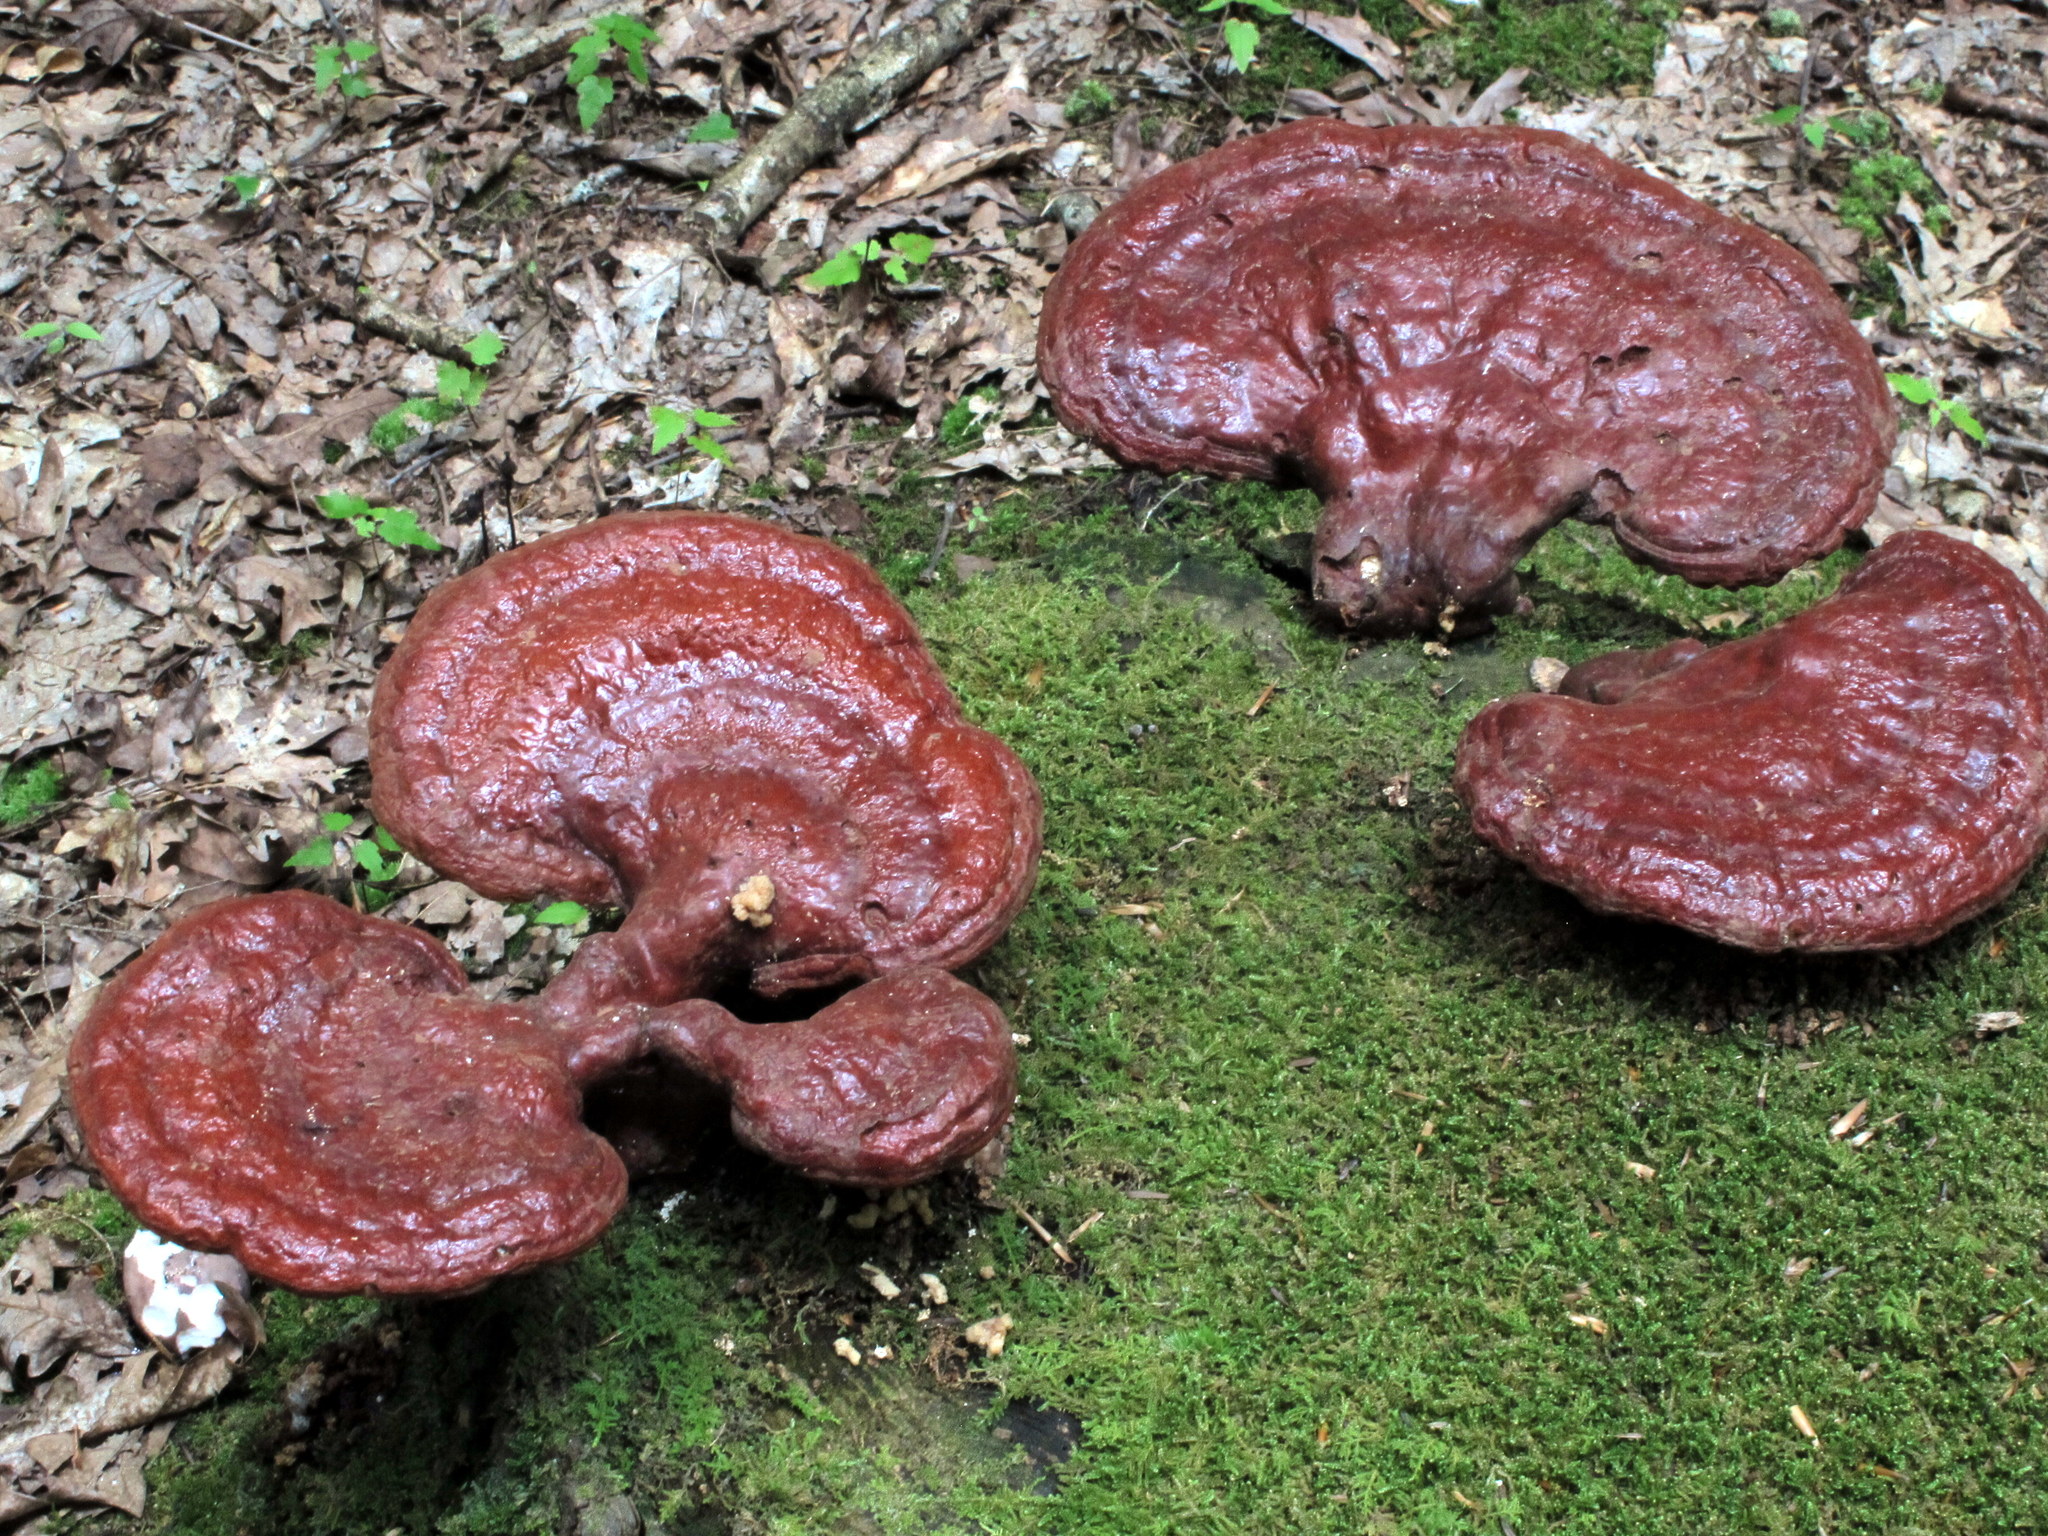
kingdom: Fungi
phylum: Basidiomycota
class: Agaricomycetes
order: Polyporales
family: Polyporaceae
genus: Ganoderma
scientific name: Ganoderma tsugae
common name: Hemlock varnish shelf
